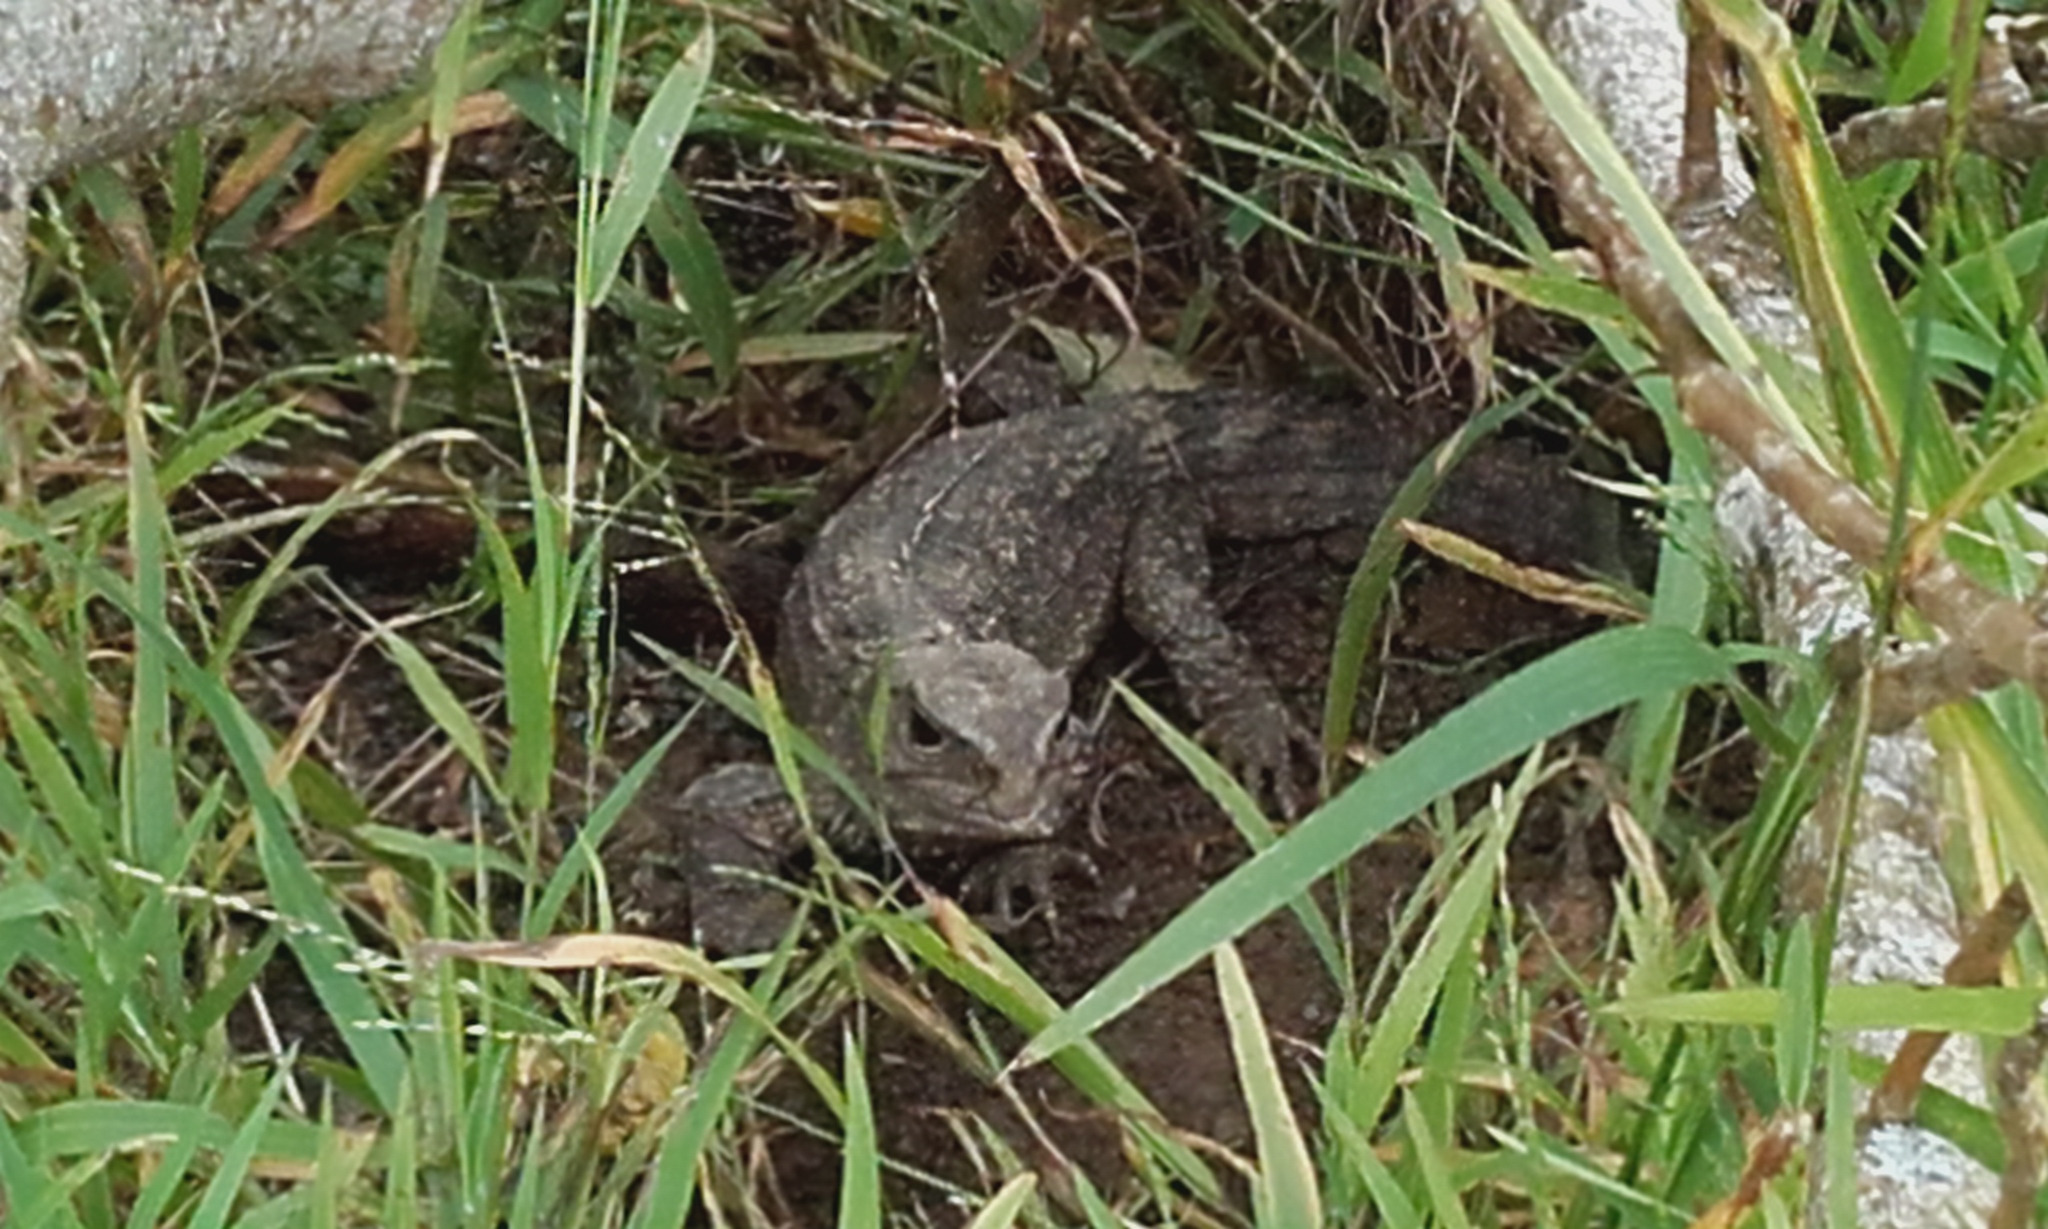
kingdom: Animalia
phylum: Chordata
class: Sphenodontia
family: Sphenodontidae
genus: Sphenodon
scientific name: Sphenodon punctatus
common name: Tuatara
